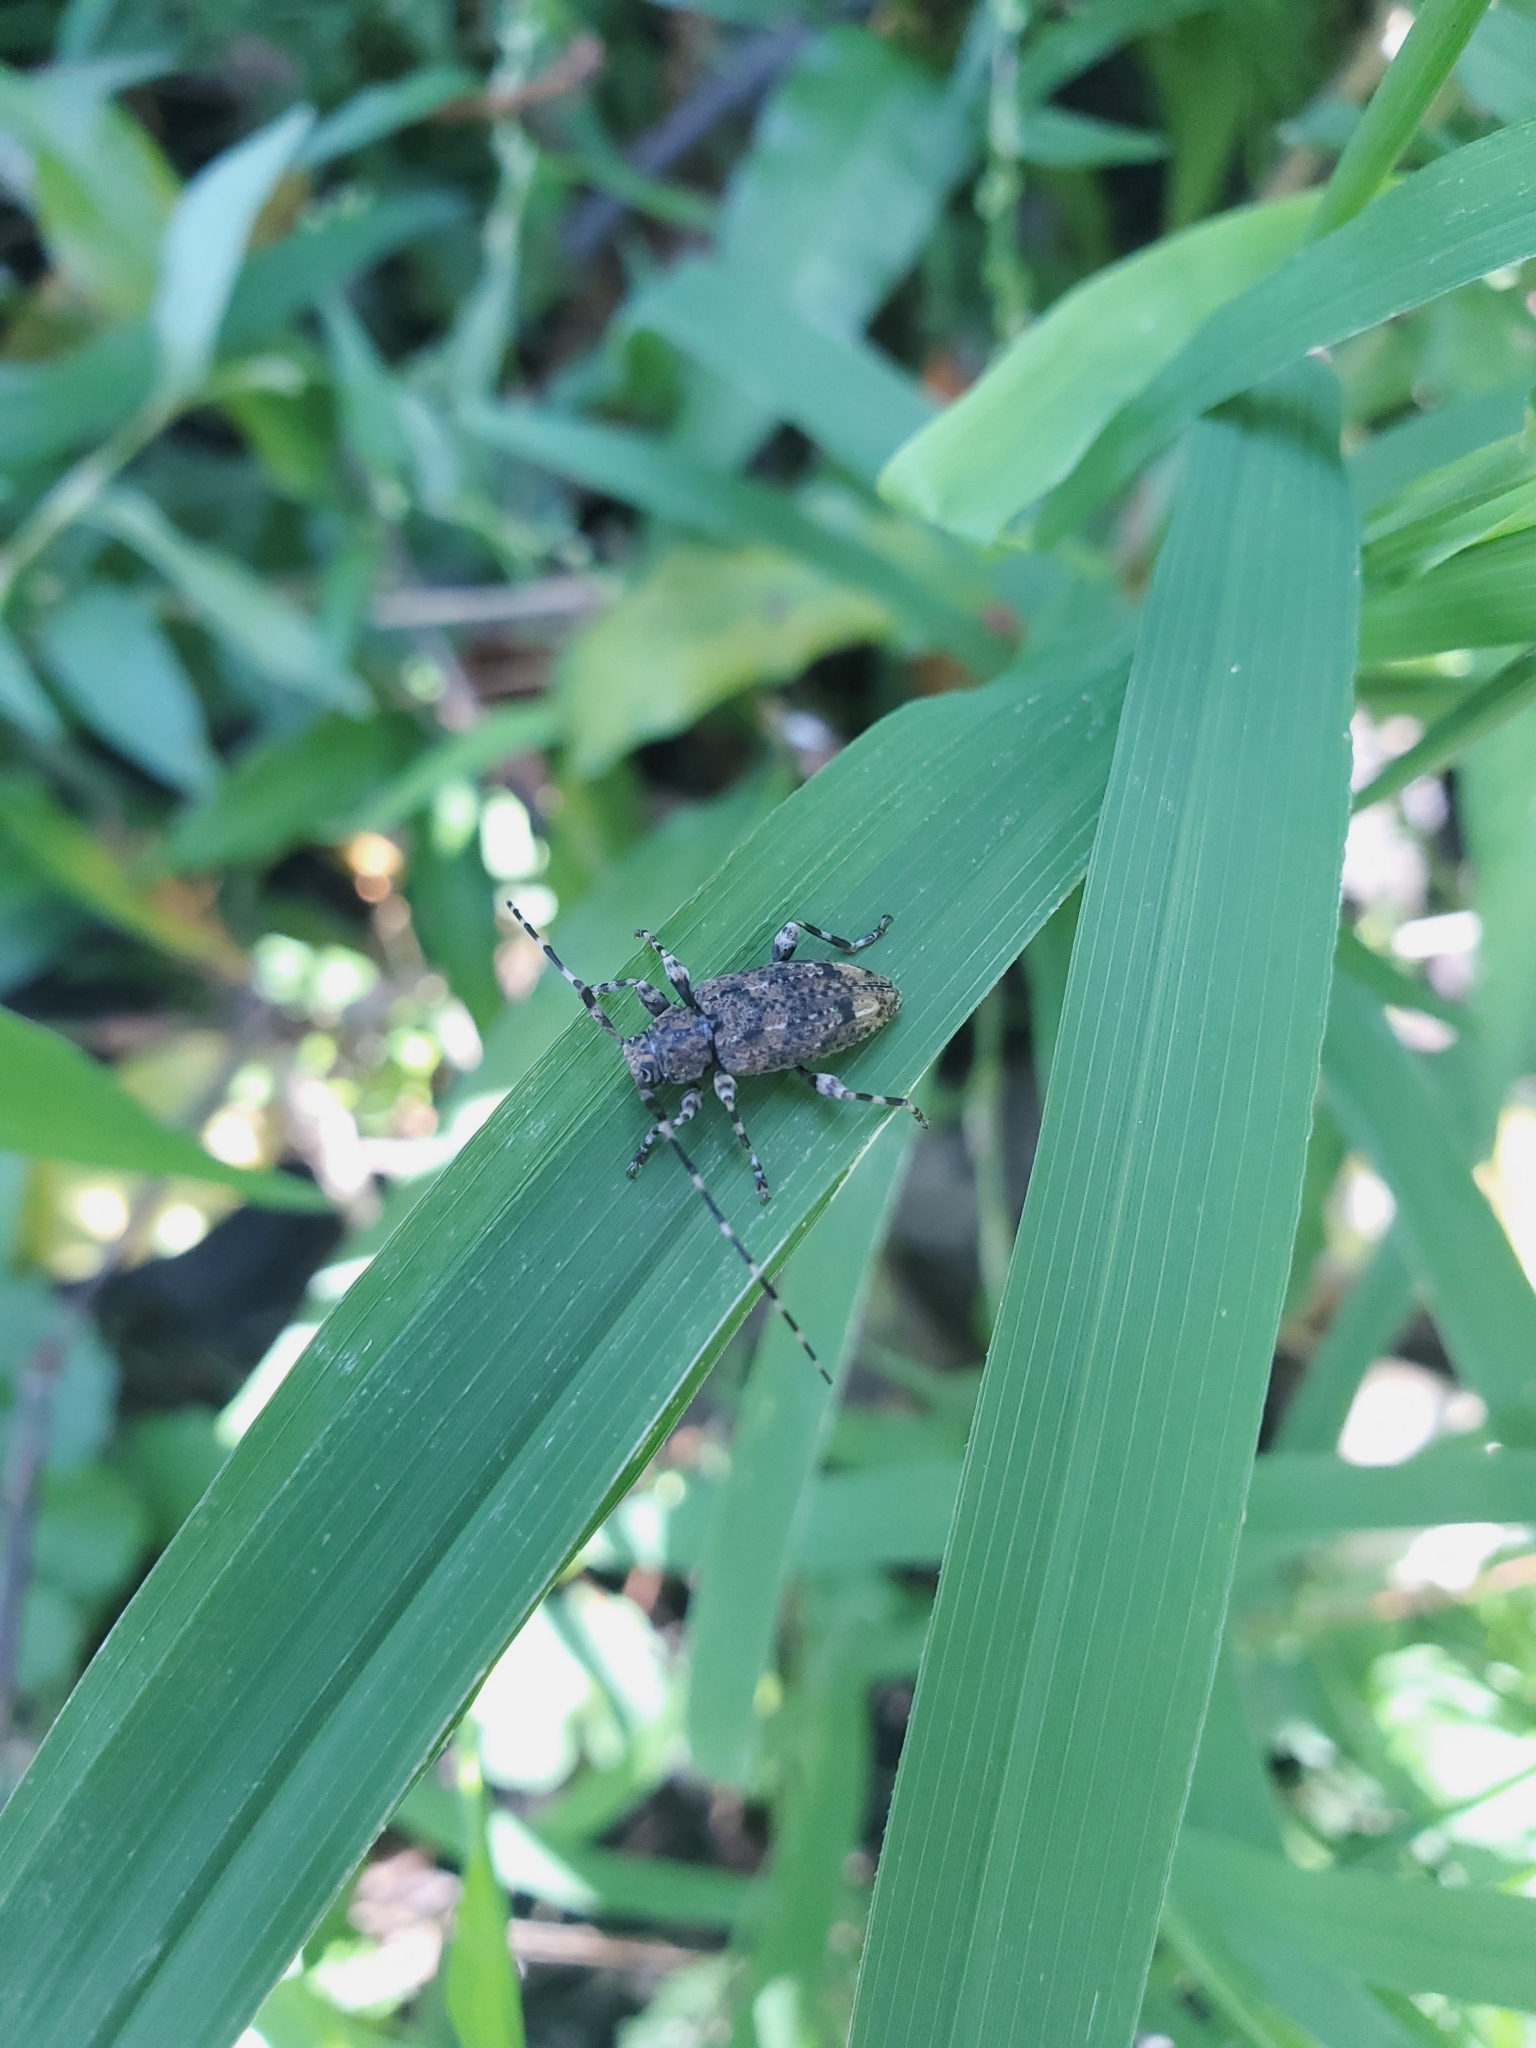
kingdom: Animalia
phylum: Arthropoda
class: Insecta
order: Coleoptera
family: Cerambycidae
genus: Astyleiopus
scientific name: Astyleiopus variegatus
